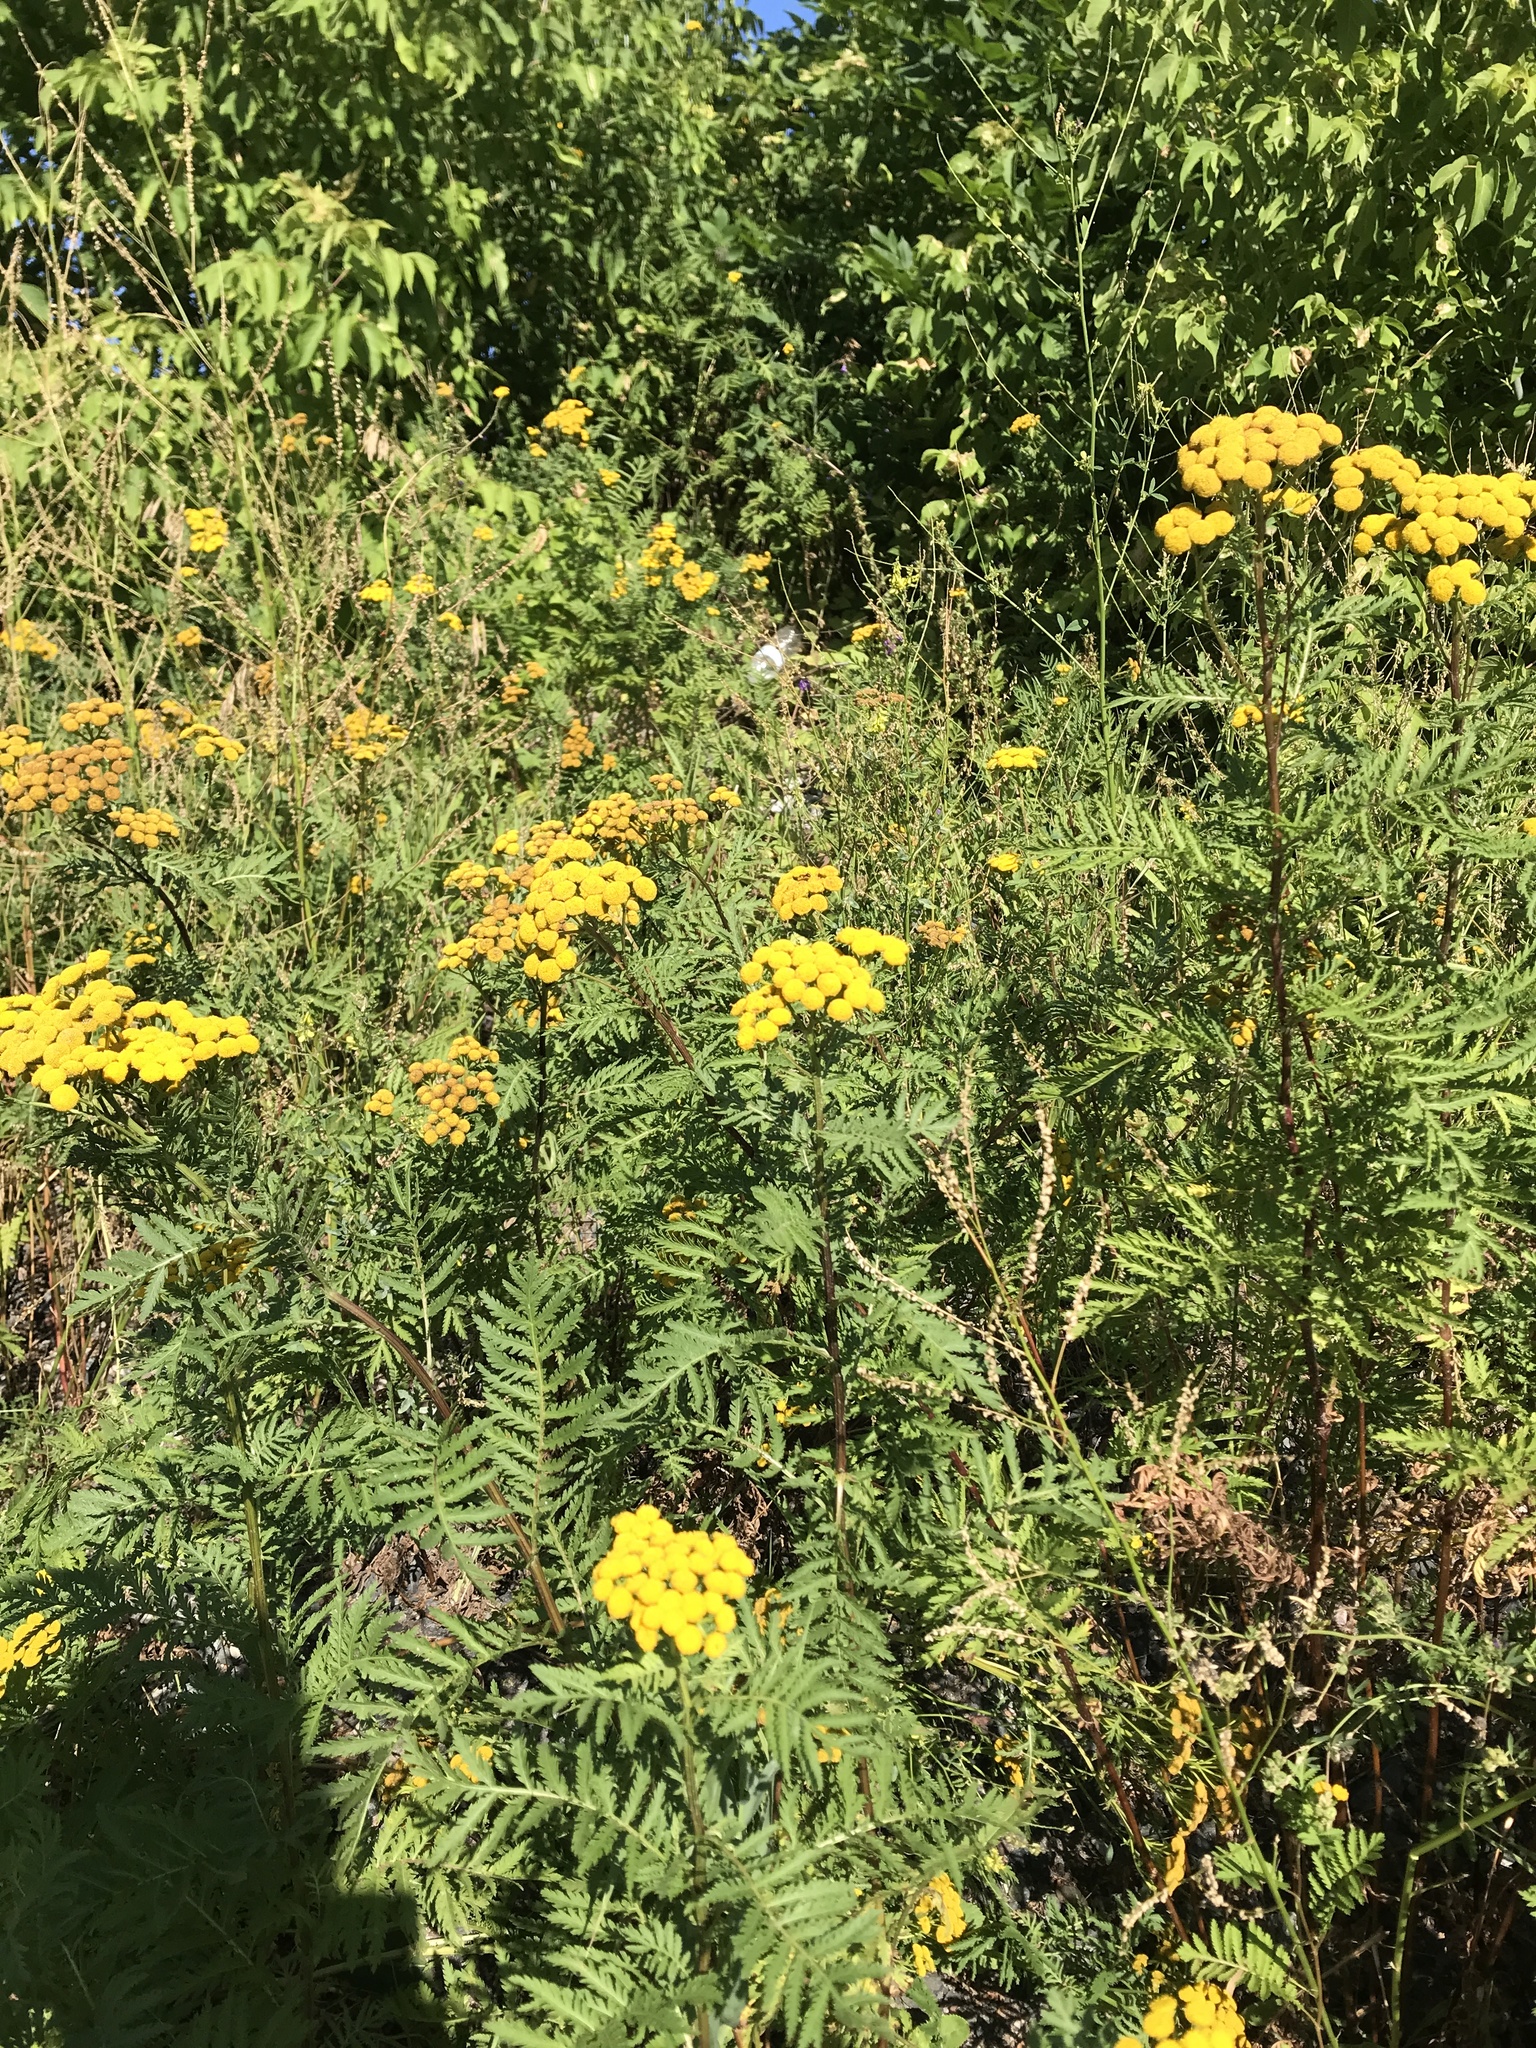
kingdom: Plantae
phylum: Tracheophyta
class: Magnoliopsida
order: Asterales
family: Asteraceae
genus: Tanacetum
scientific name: Tanacetum vulgare
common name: Common tansy
